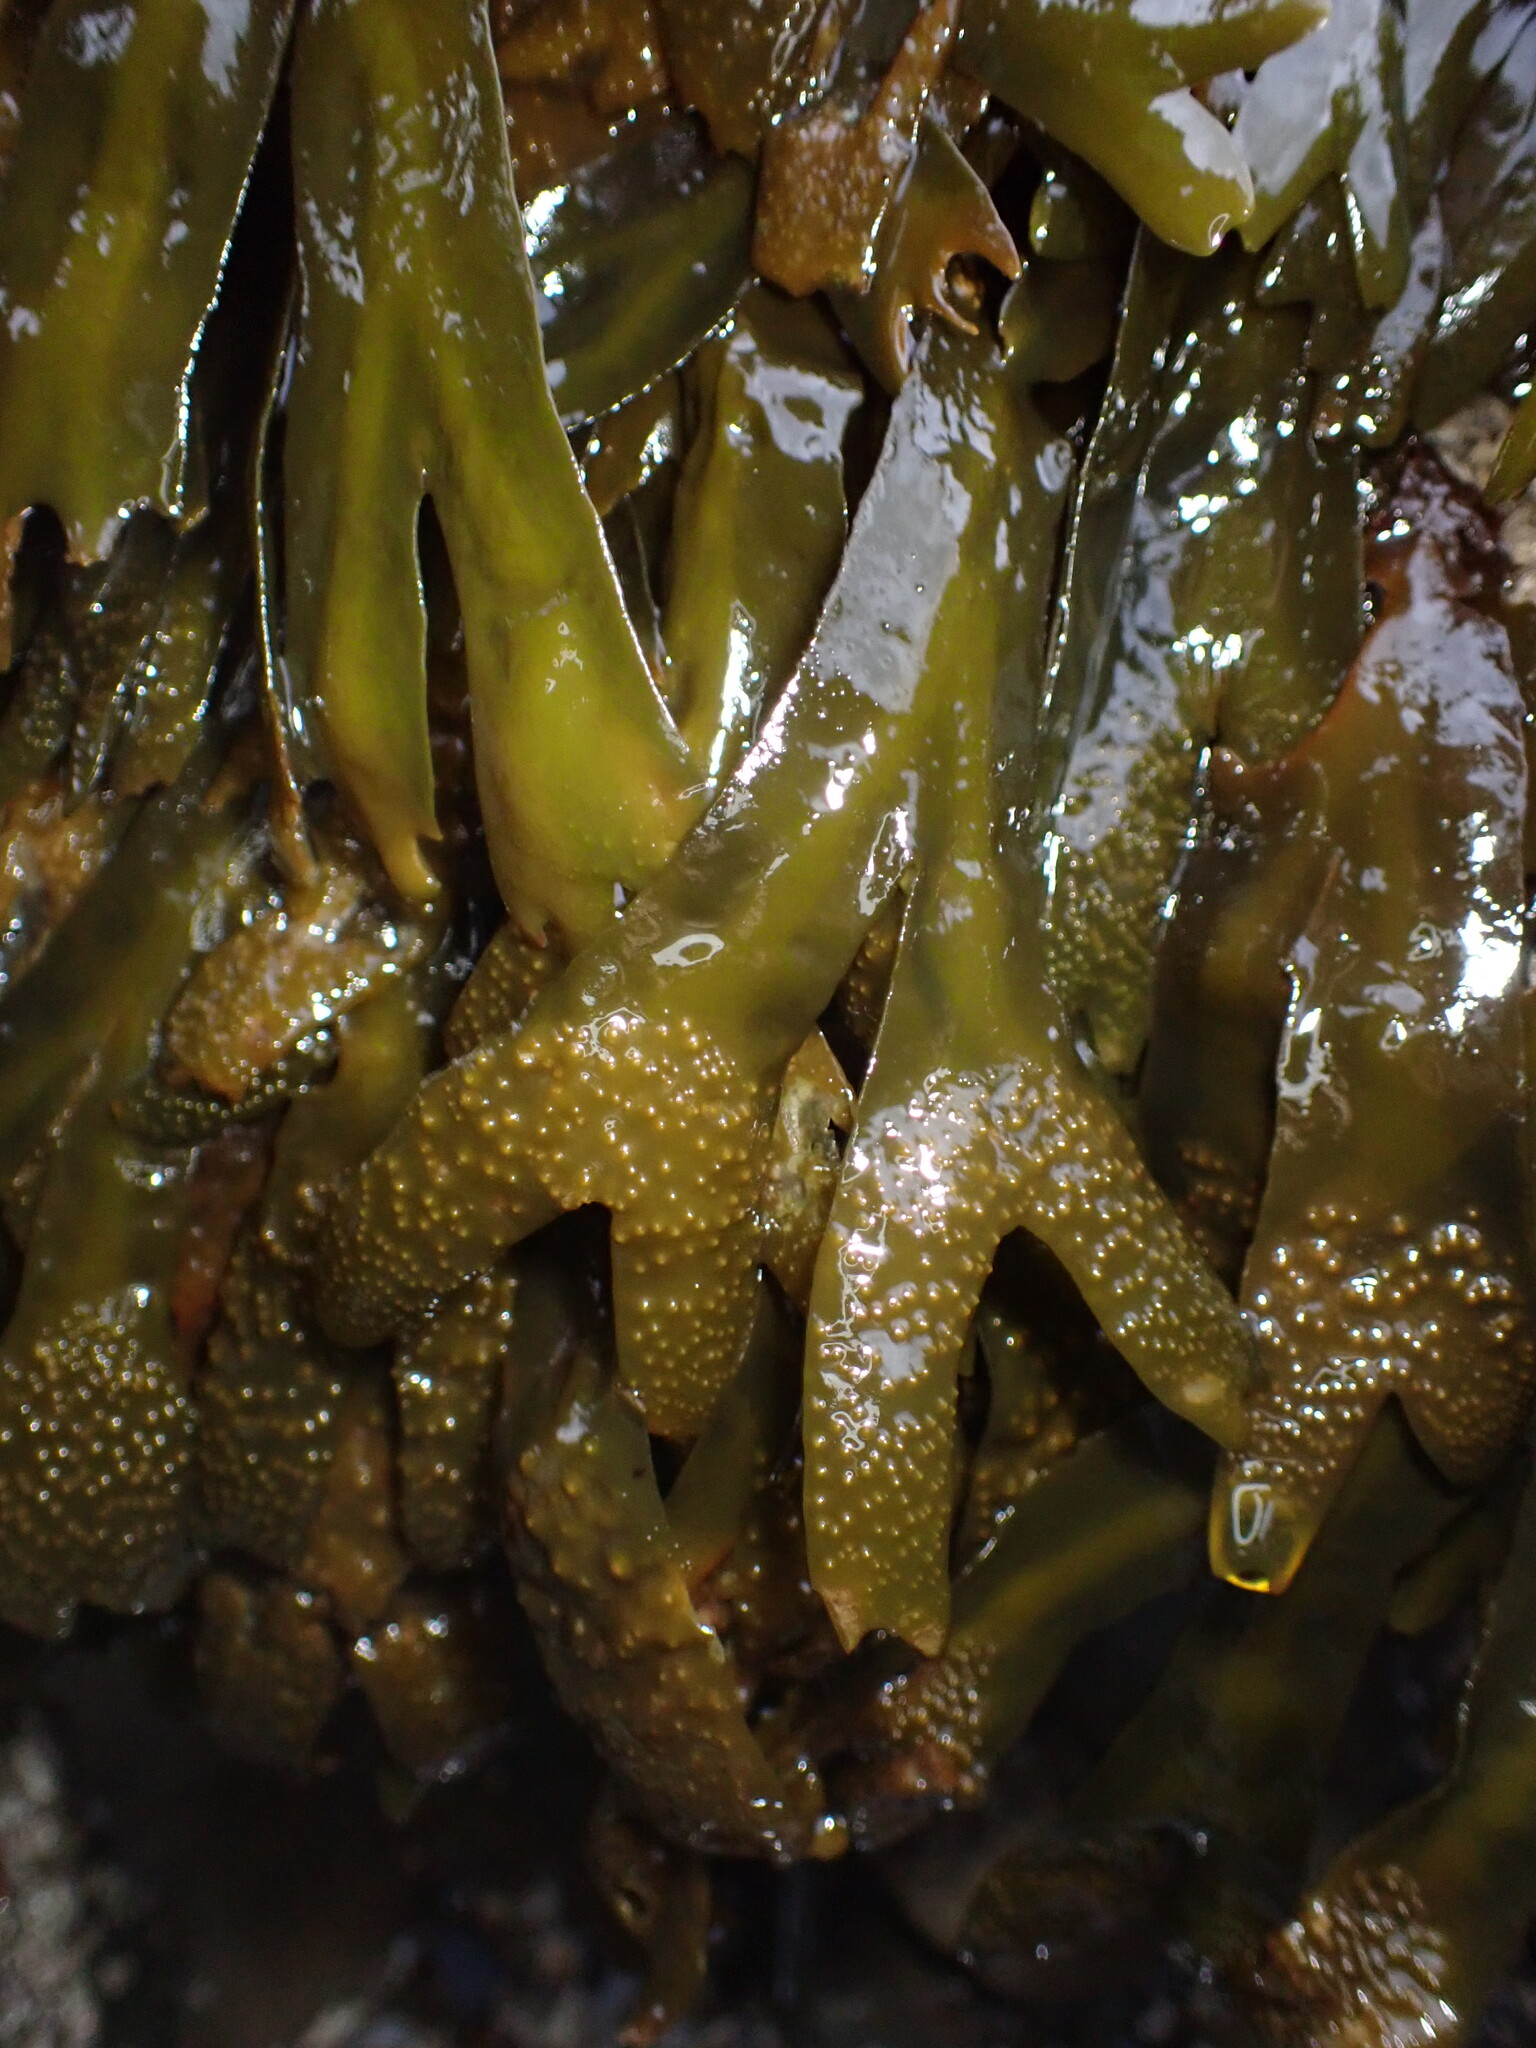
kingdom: Chromista
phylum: Ochrophyta
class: Phaeophyceae
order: Fucales
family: Fucaceae
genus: Fucus
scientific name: Fucus distichus
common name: Rockweed
